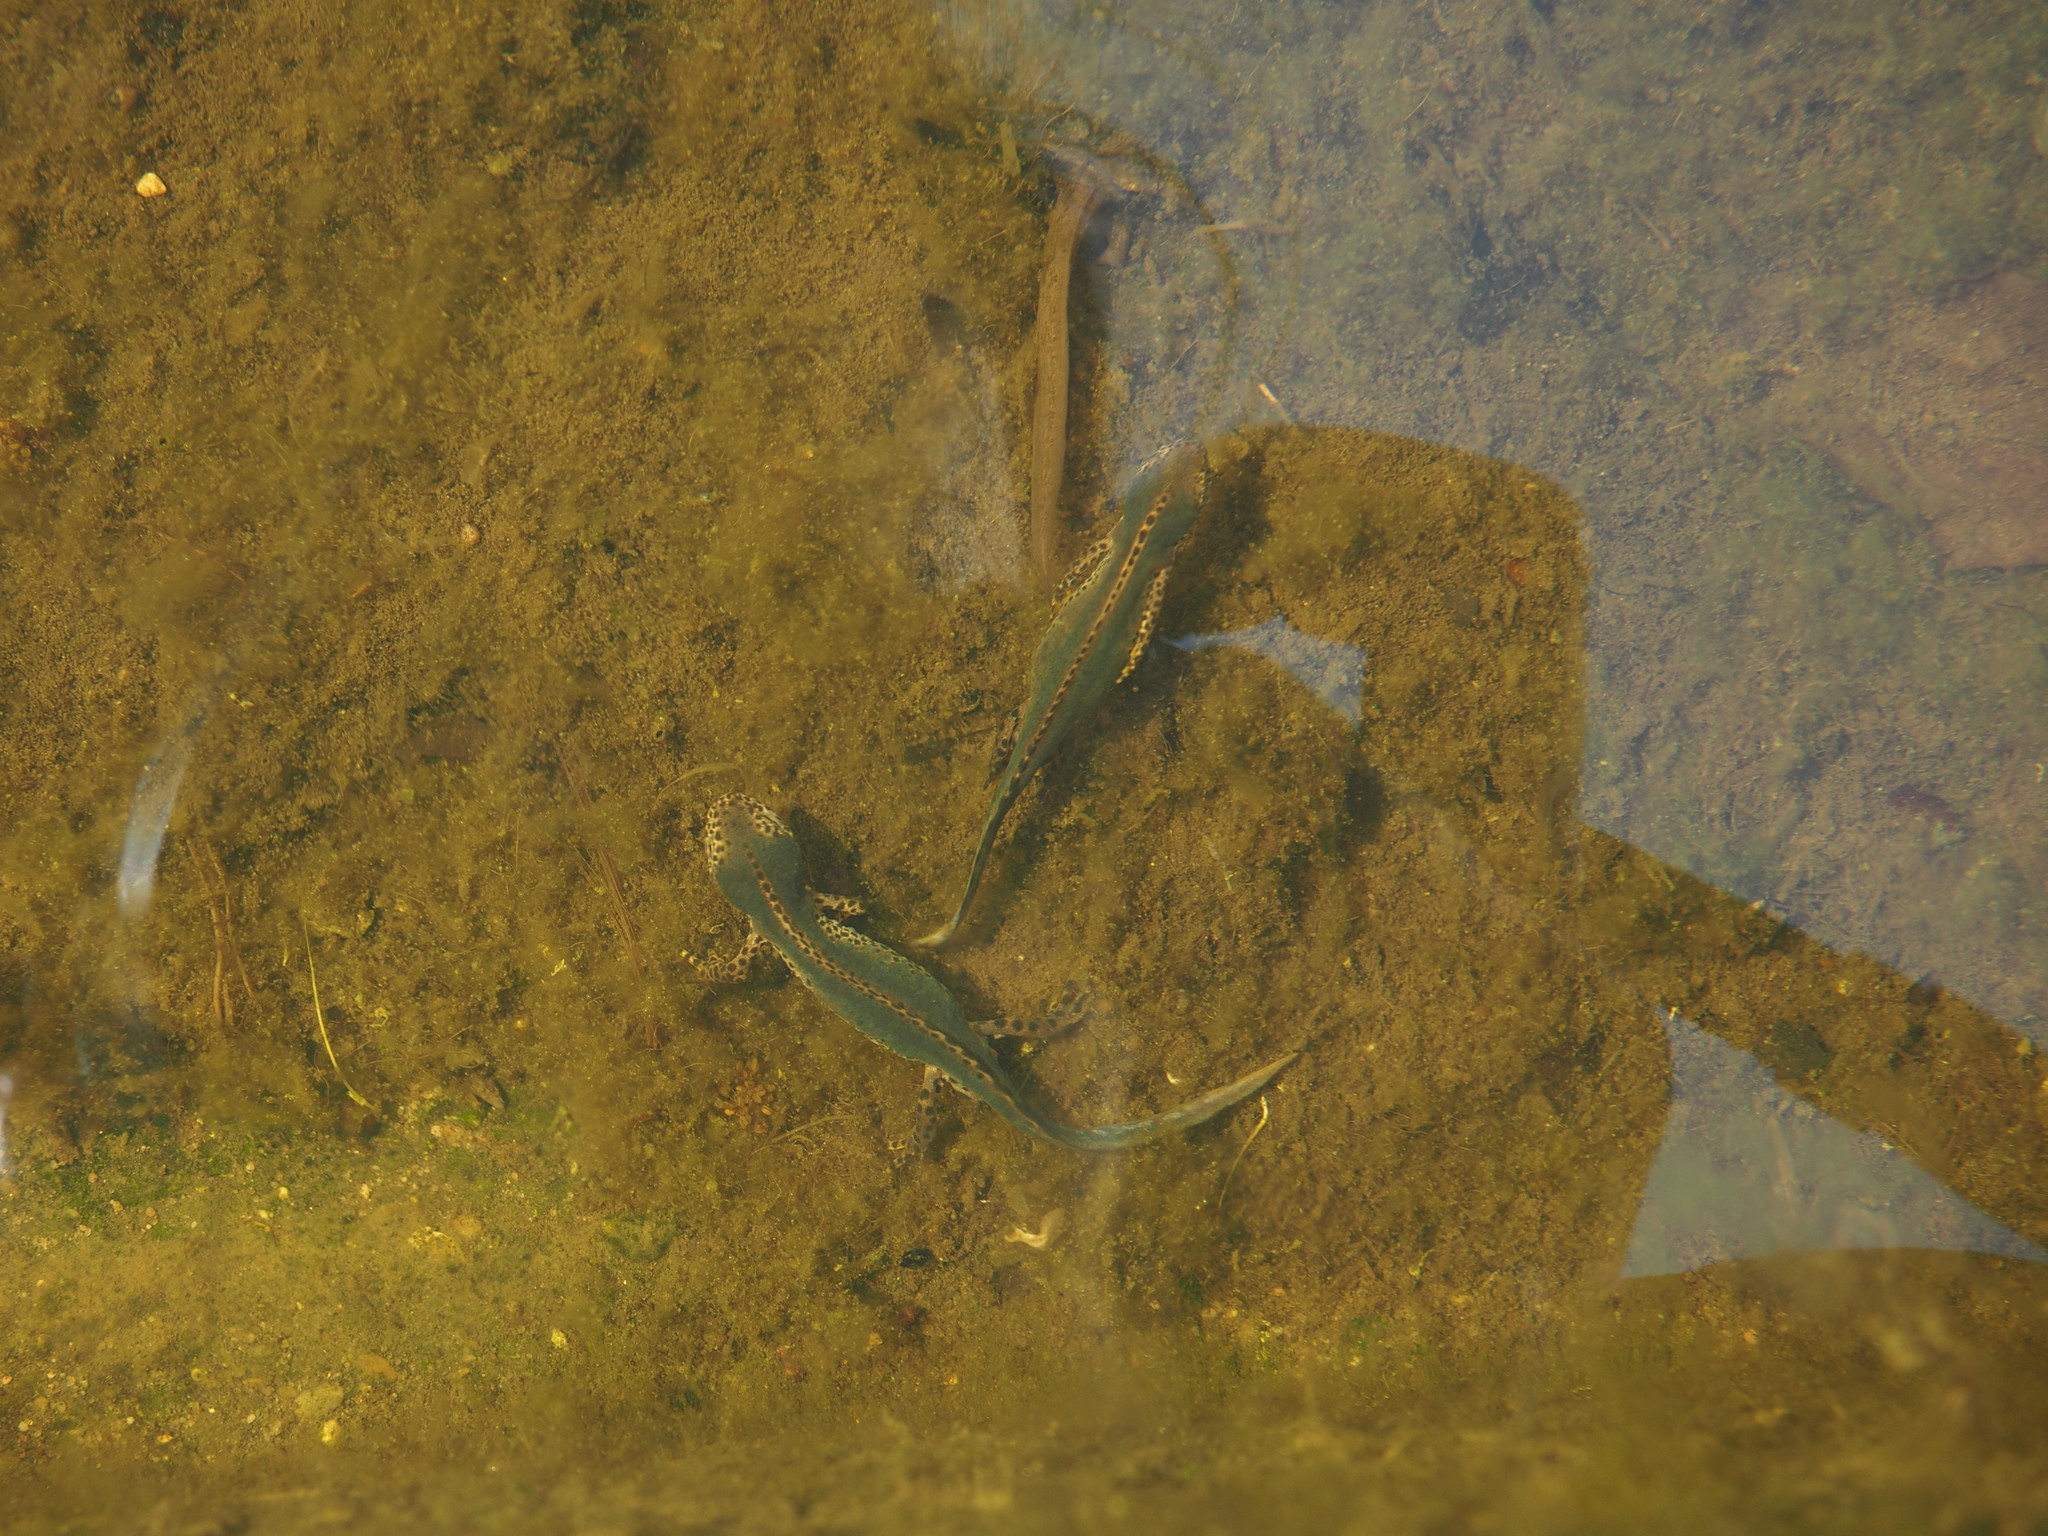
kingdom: Animalia
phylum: Chordata
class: Amphibia
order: Caudata
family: Salamandridae
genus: Ichthyosaura
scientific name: Ichthyosaura alpestris
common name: Alpine newt
